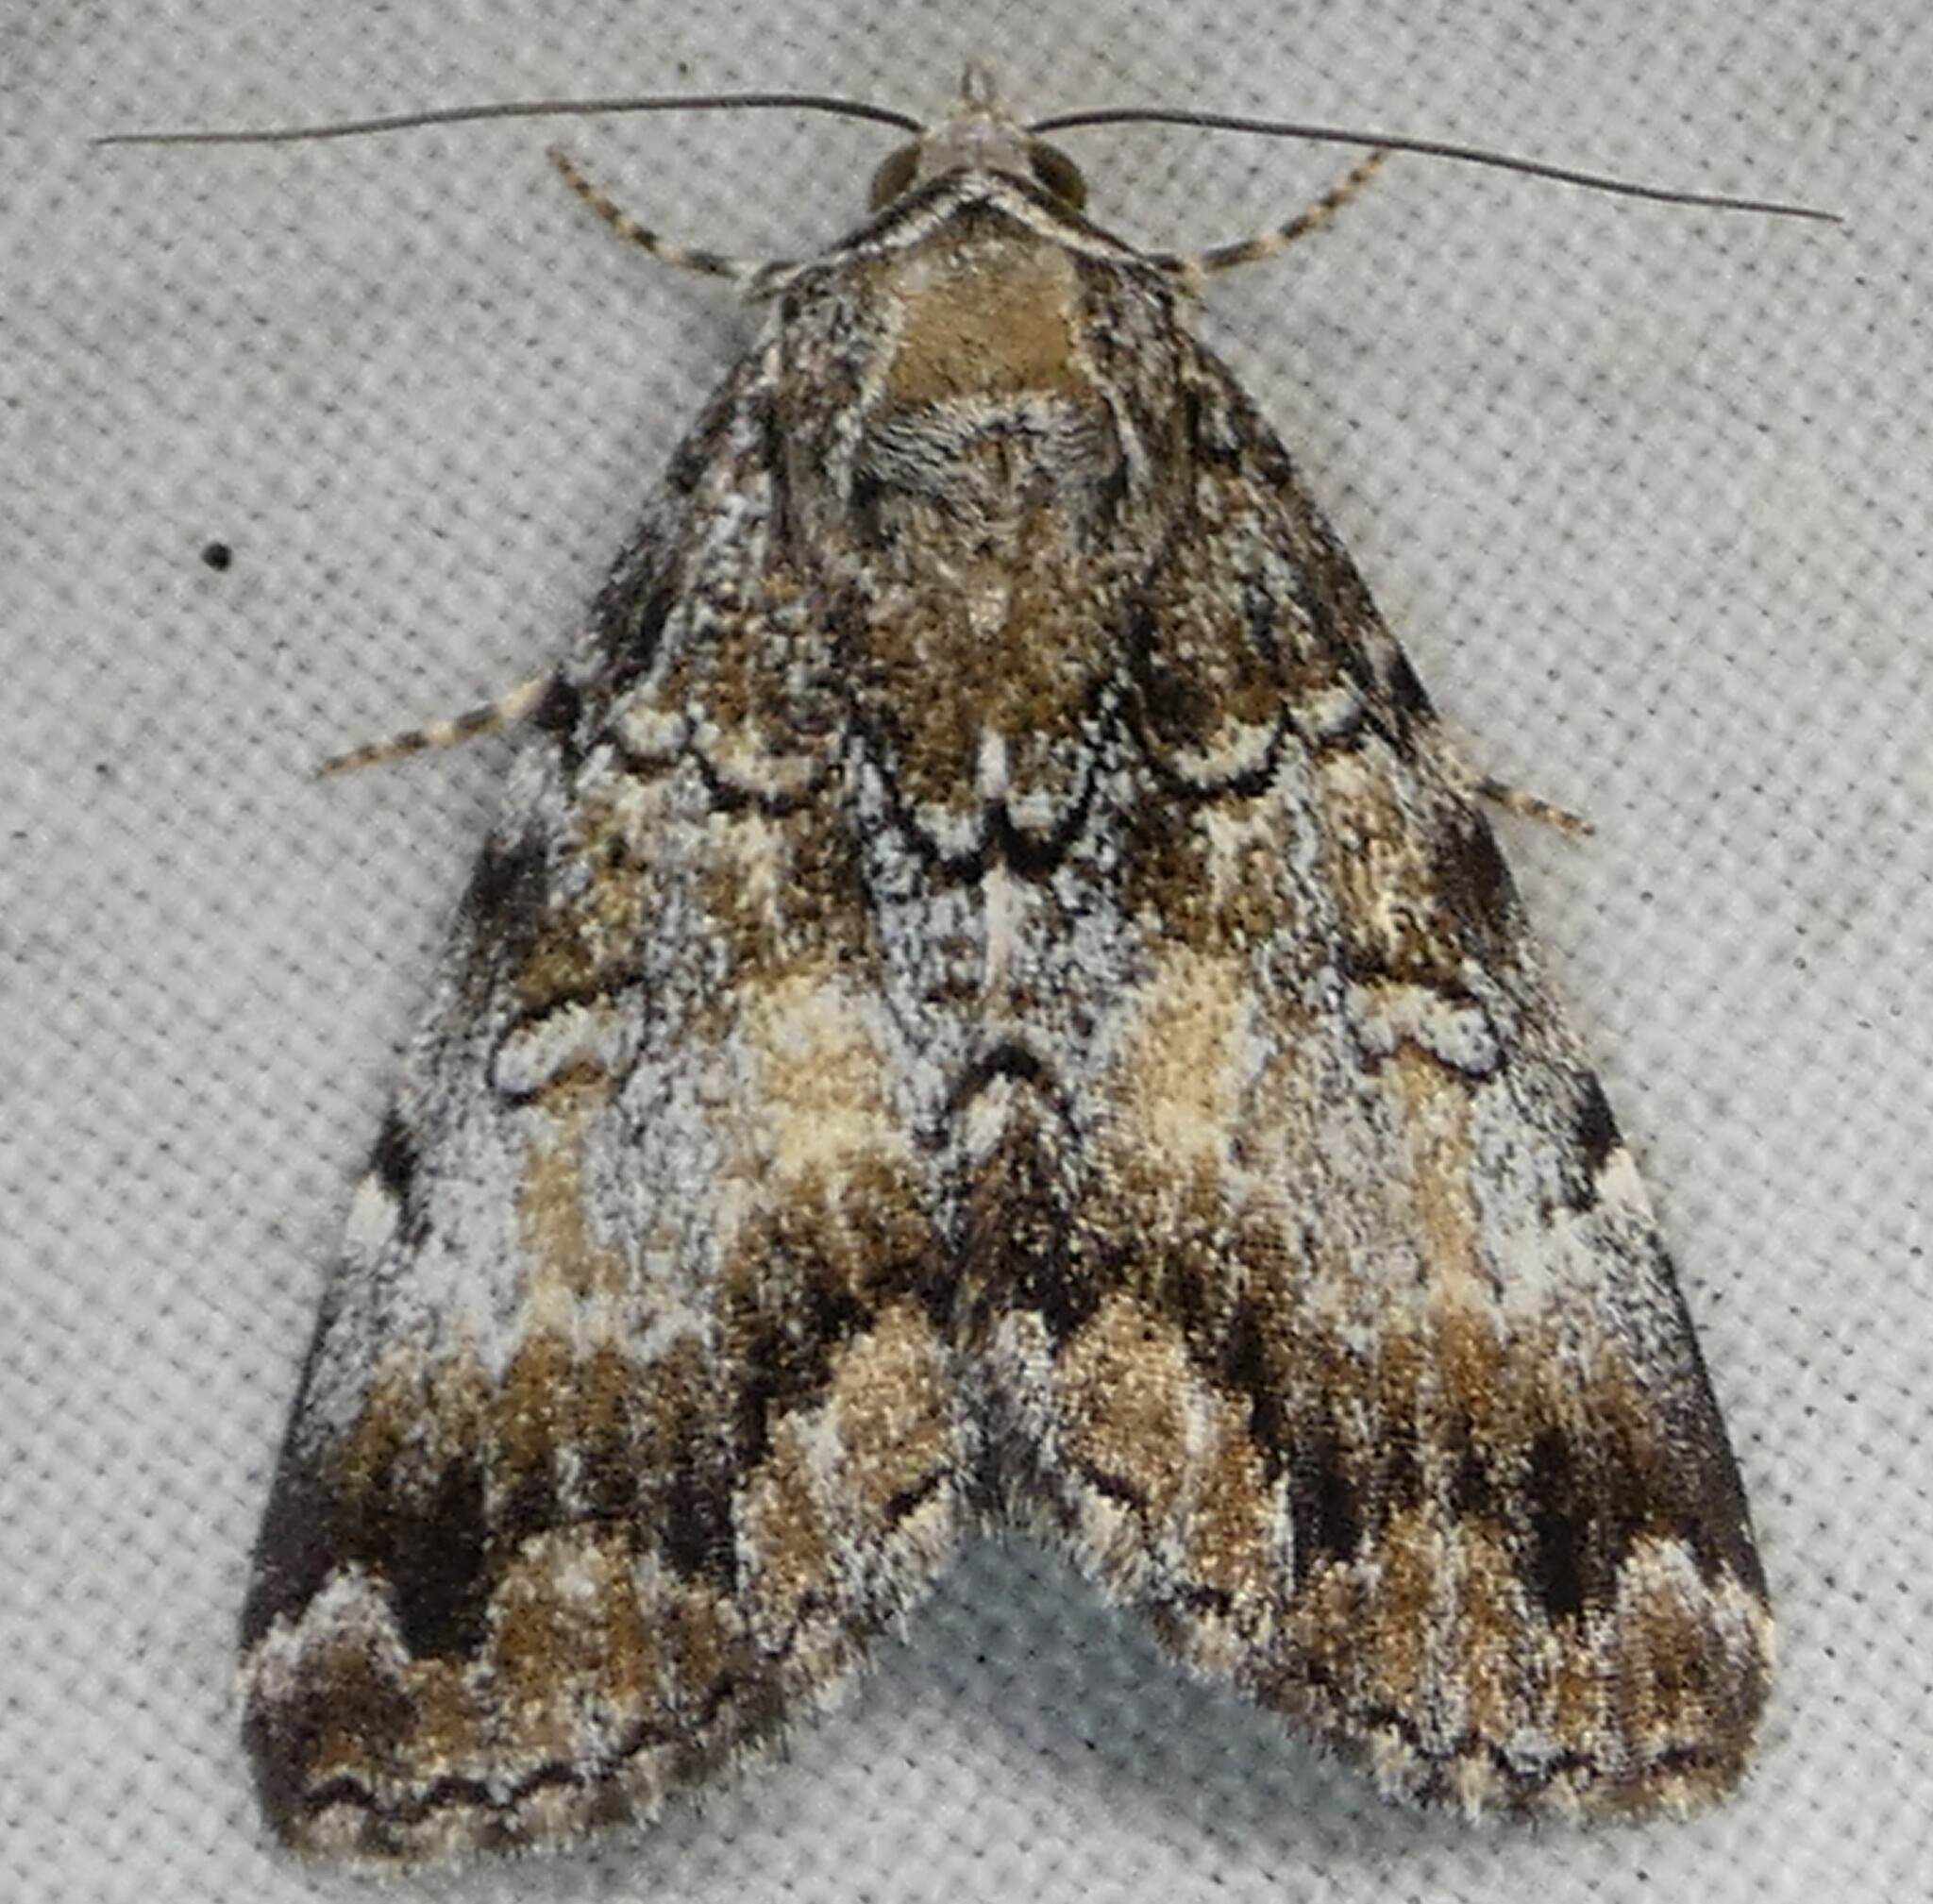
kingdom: Animalia
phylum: Arthropoda
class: Insecta
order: Lepidoptera
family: Erebidae
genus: Allotria
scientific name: Allotria elonympha
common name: False underwing
